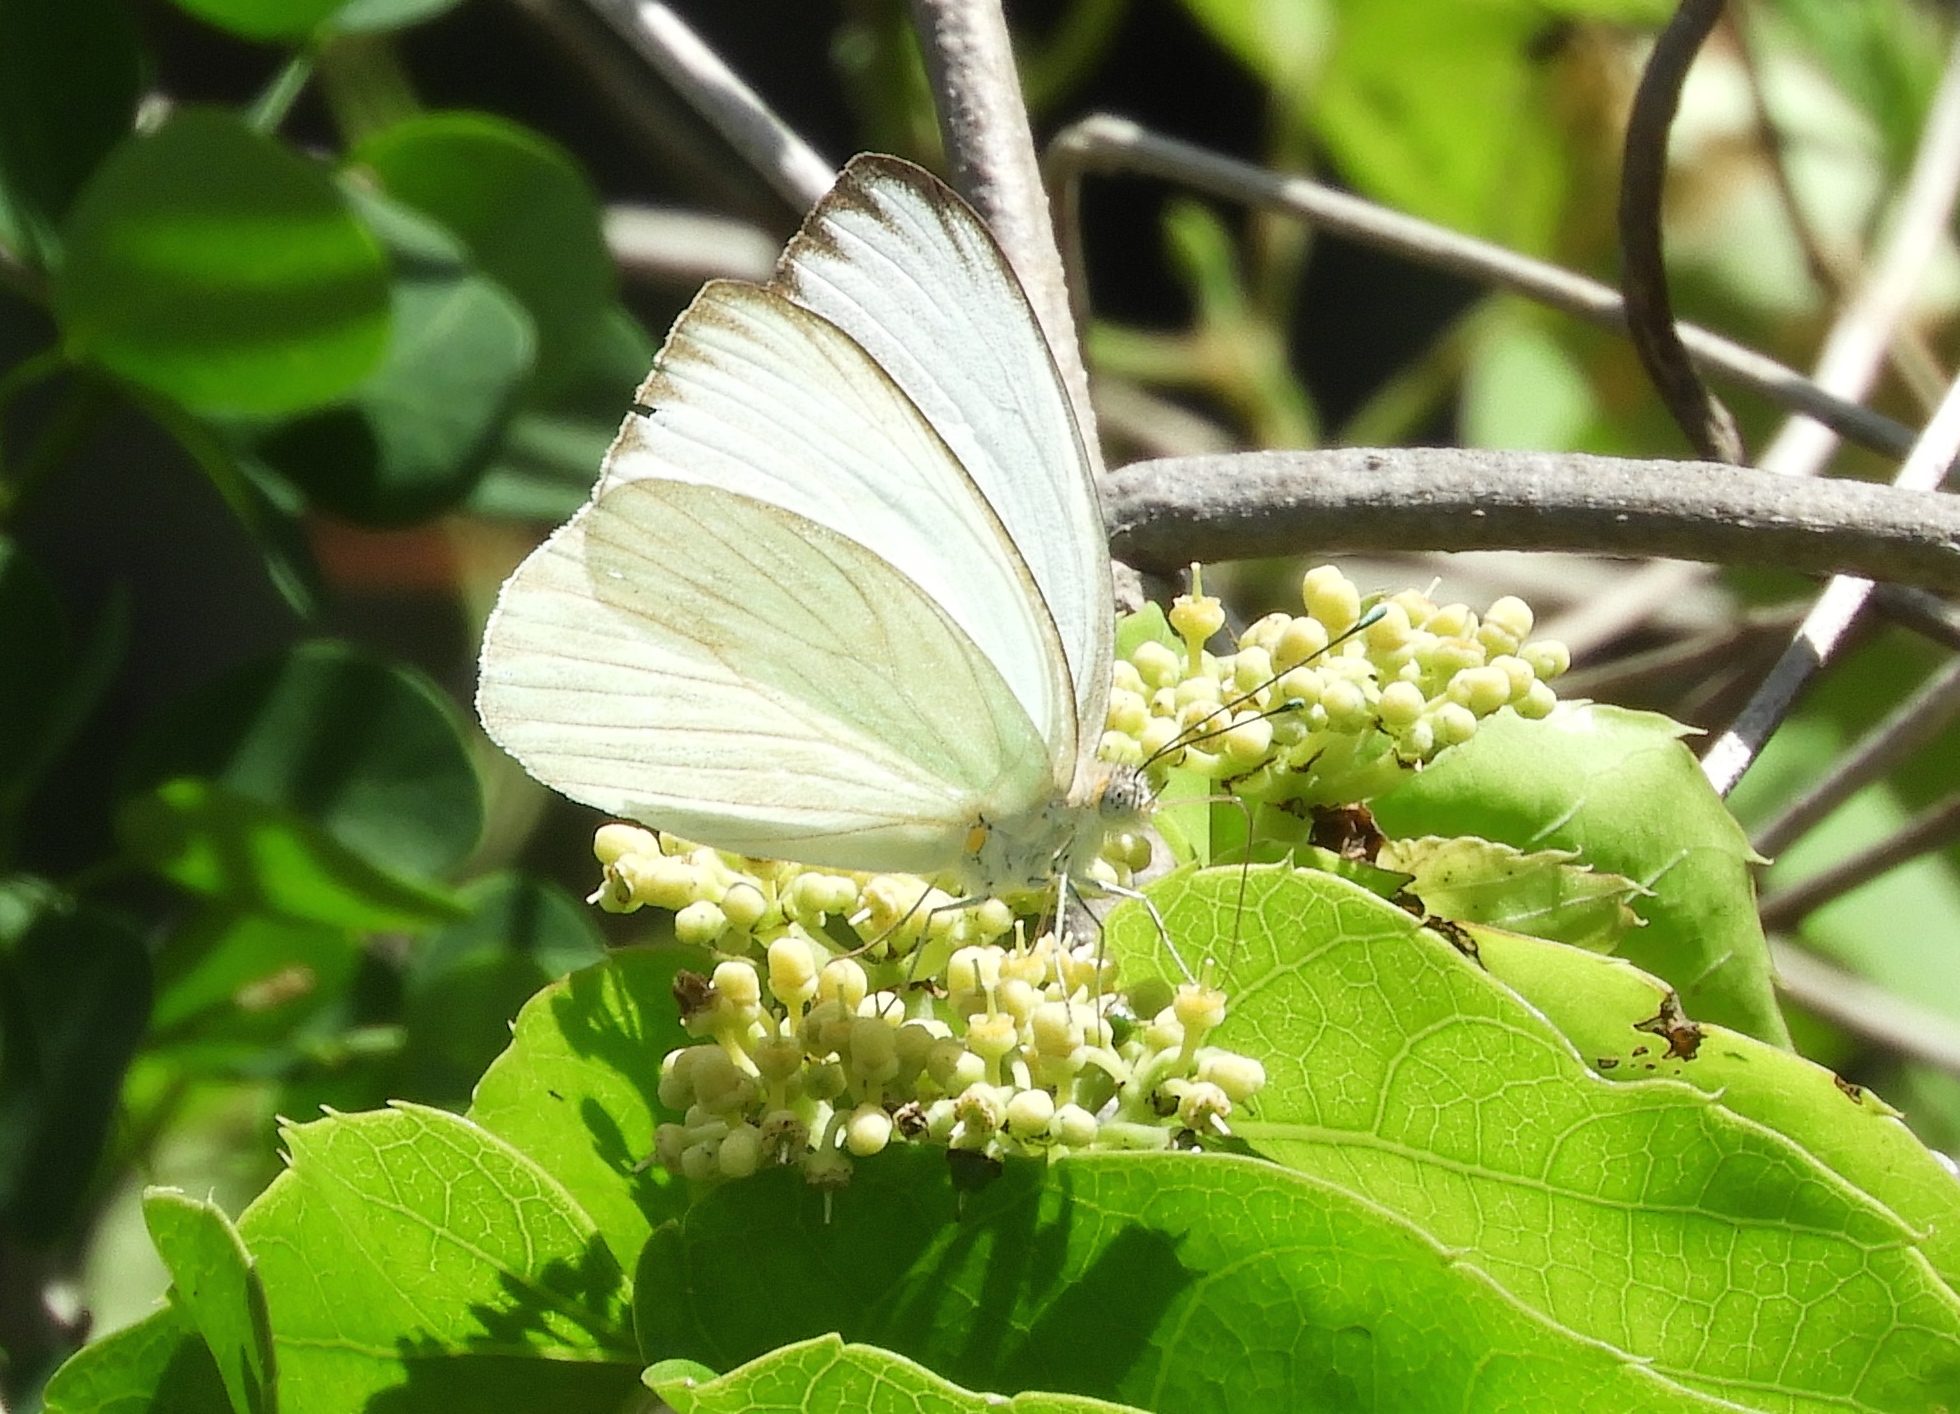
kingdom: Animalia
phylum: Arthropoda
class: Insecta
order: Lepidoptera
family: Pieridae
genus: Ascia
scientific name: Ascia monuste
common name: Great southern white
